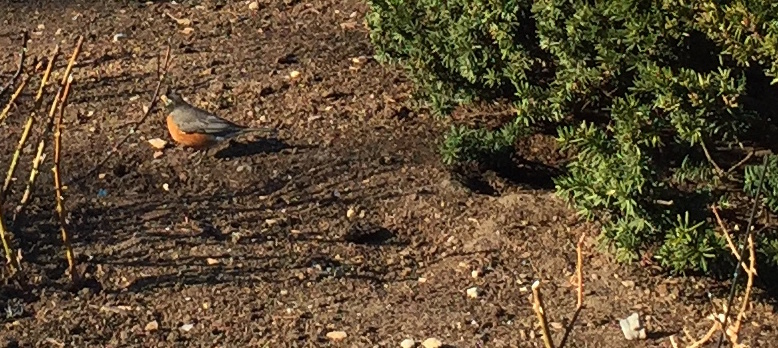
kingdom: Animalia
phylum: Chordata
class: Aves
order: Passeriformes
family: Turdidae
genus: Turdus
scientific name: Turdus migratorius
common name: American robin
